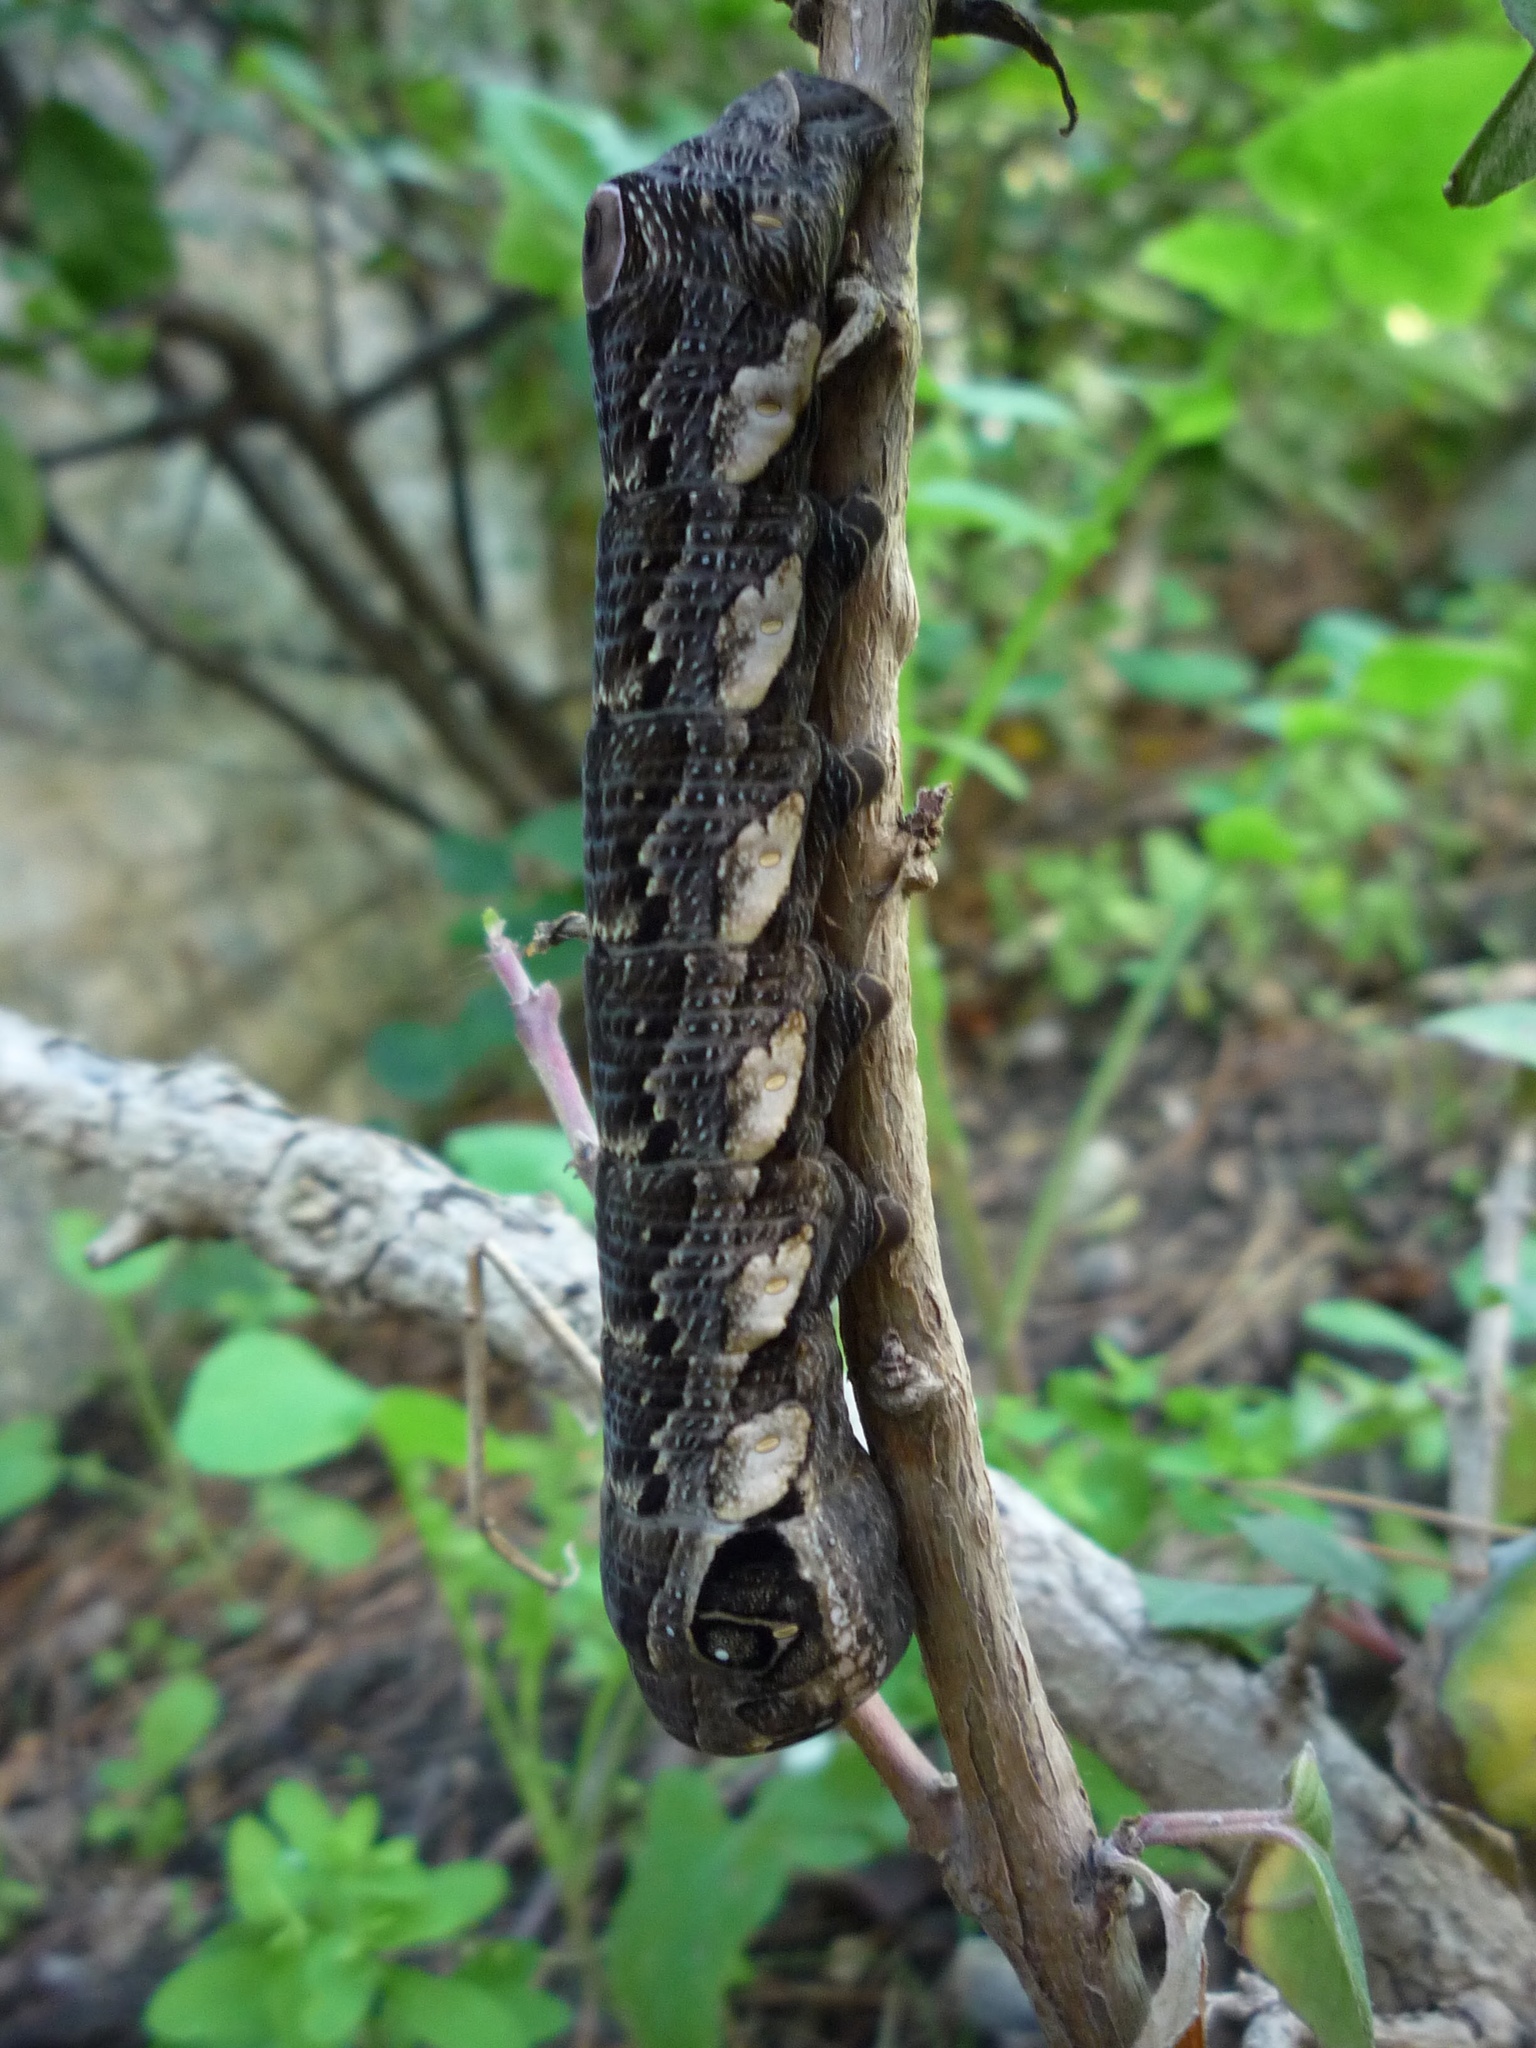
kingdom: Animalia
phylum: Arthropoda
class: Insecta
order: Lepidoptera
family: Sphingidae
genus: Eumorpha
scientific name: Eumorpha labruscae
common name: Gaudy sphinx
